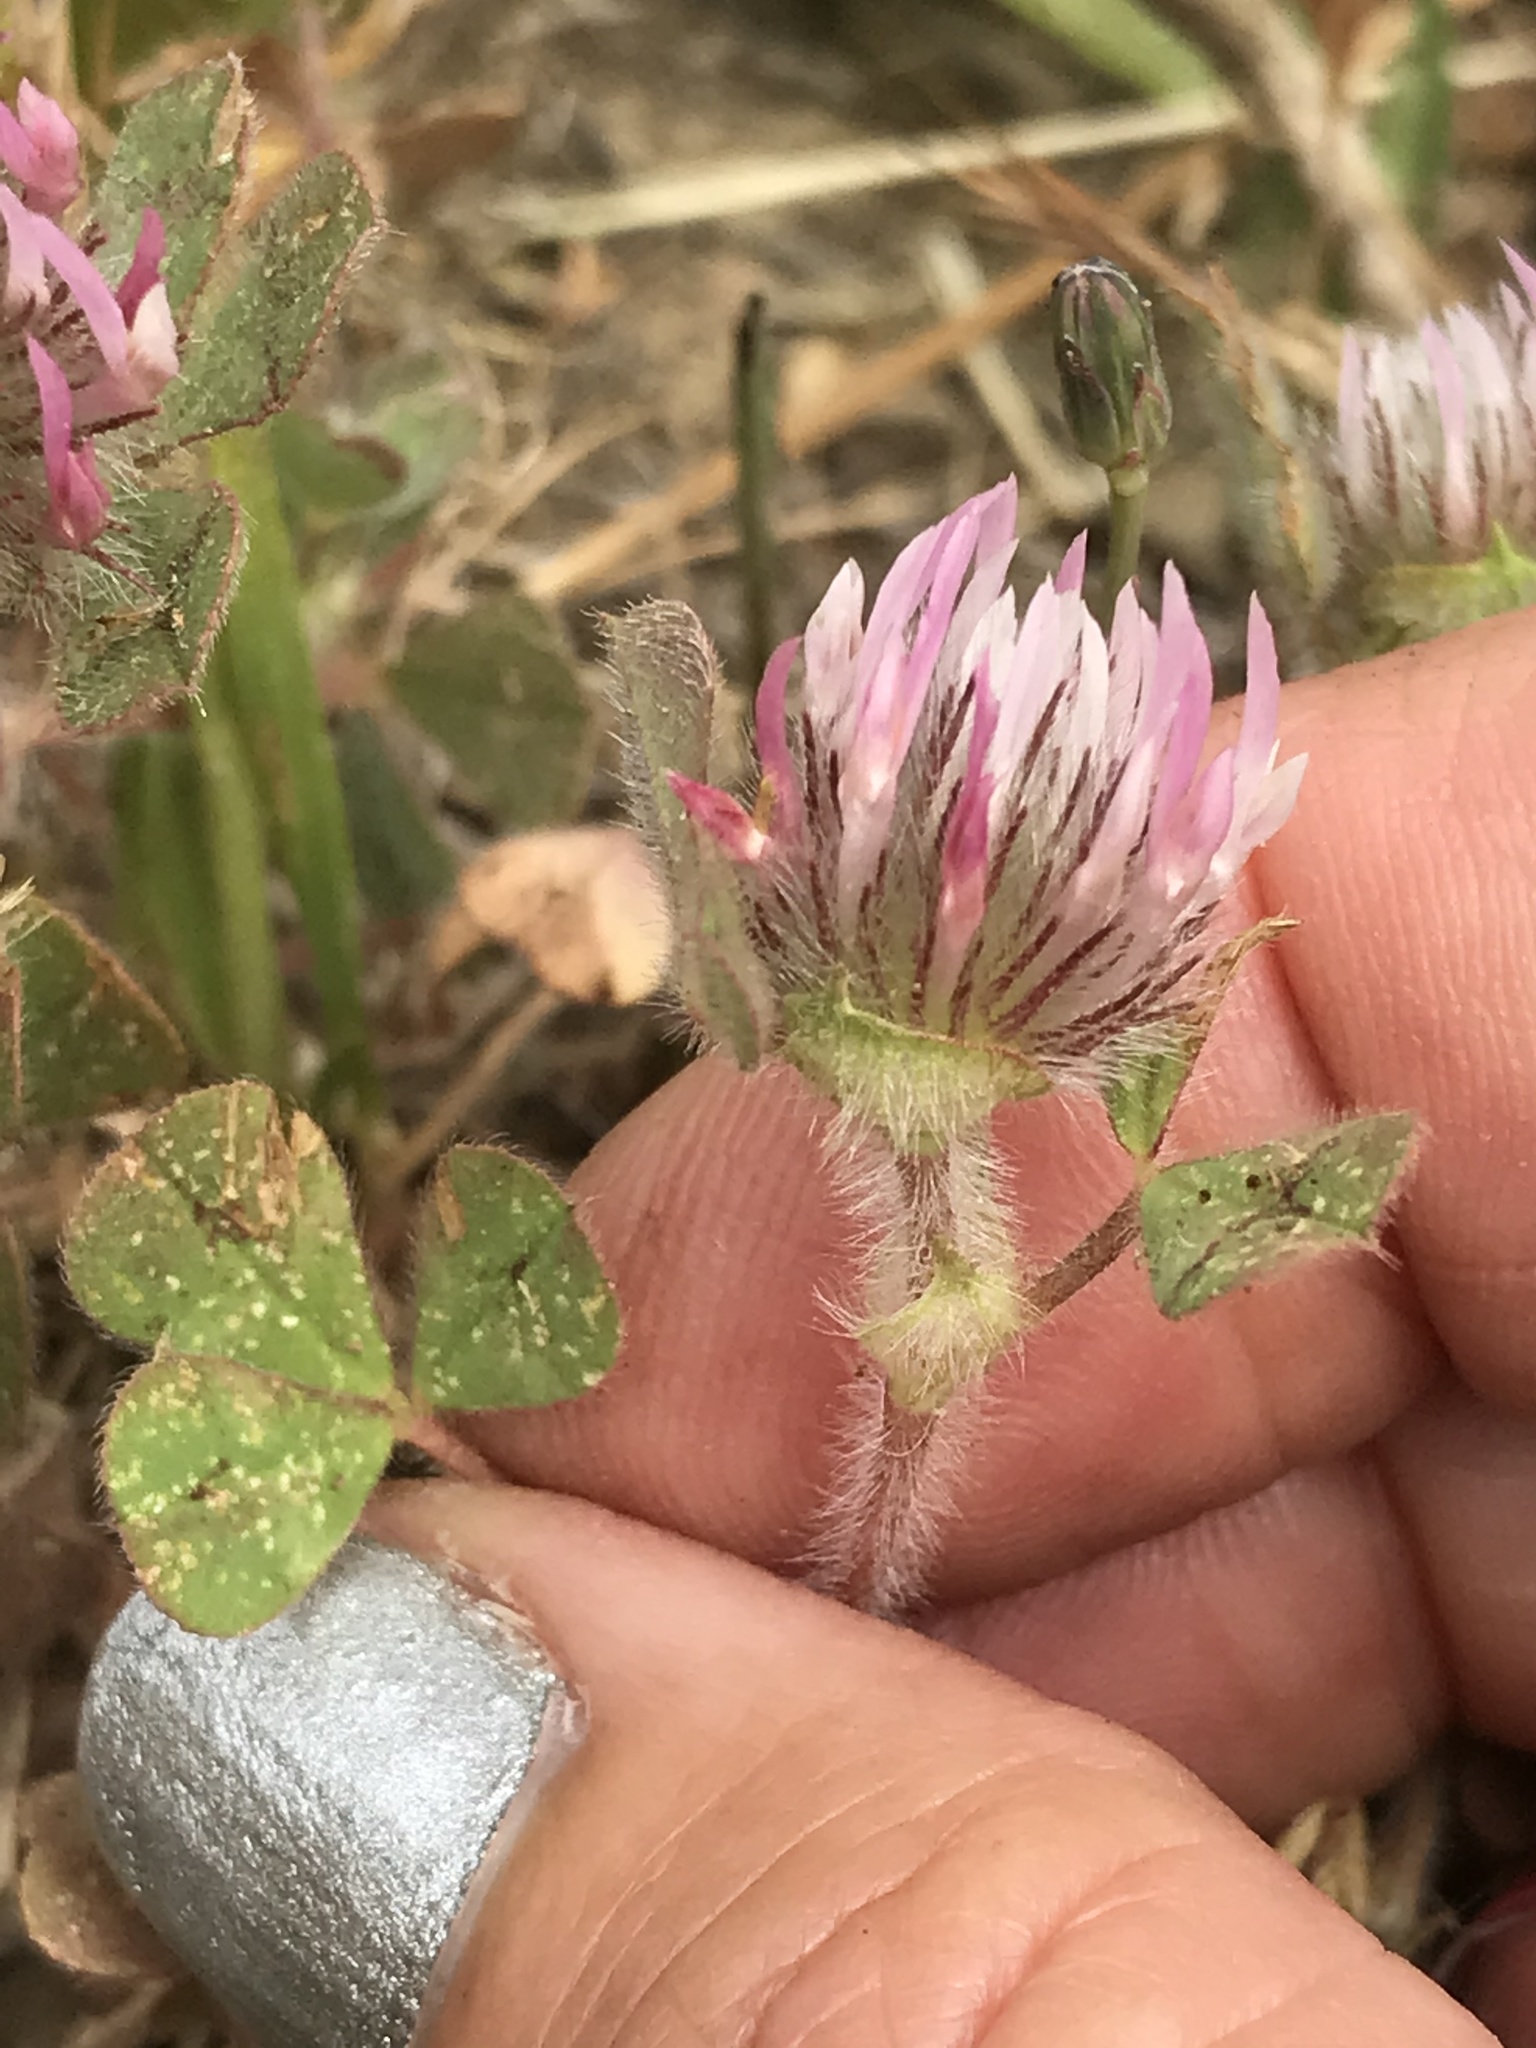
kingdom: Plantae
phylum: Tracheophyta
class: Magnoliopsida
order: Fabales
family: Fabaceae
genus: Trifolium
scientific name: Trifolium hirtum
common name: Rose clover
